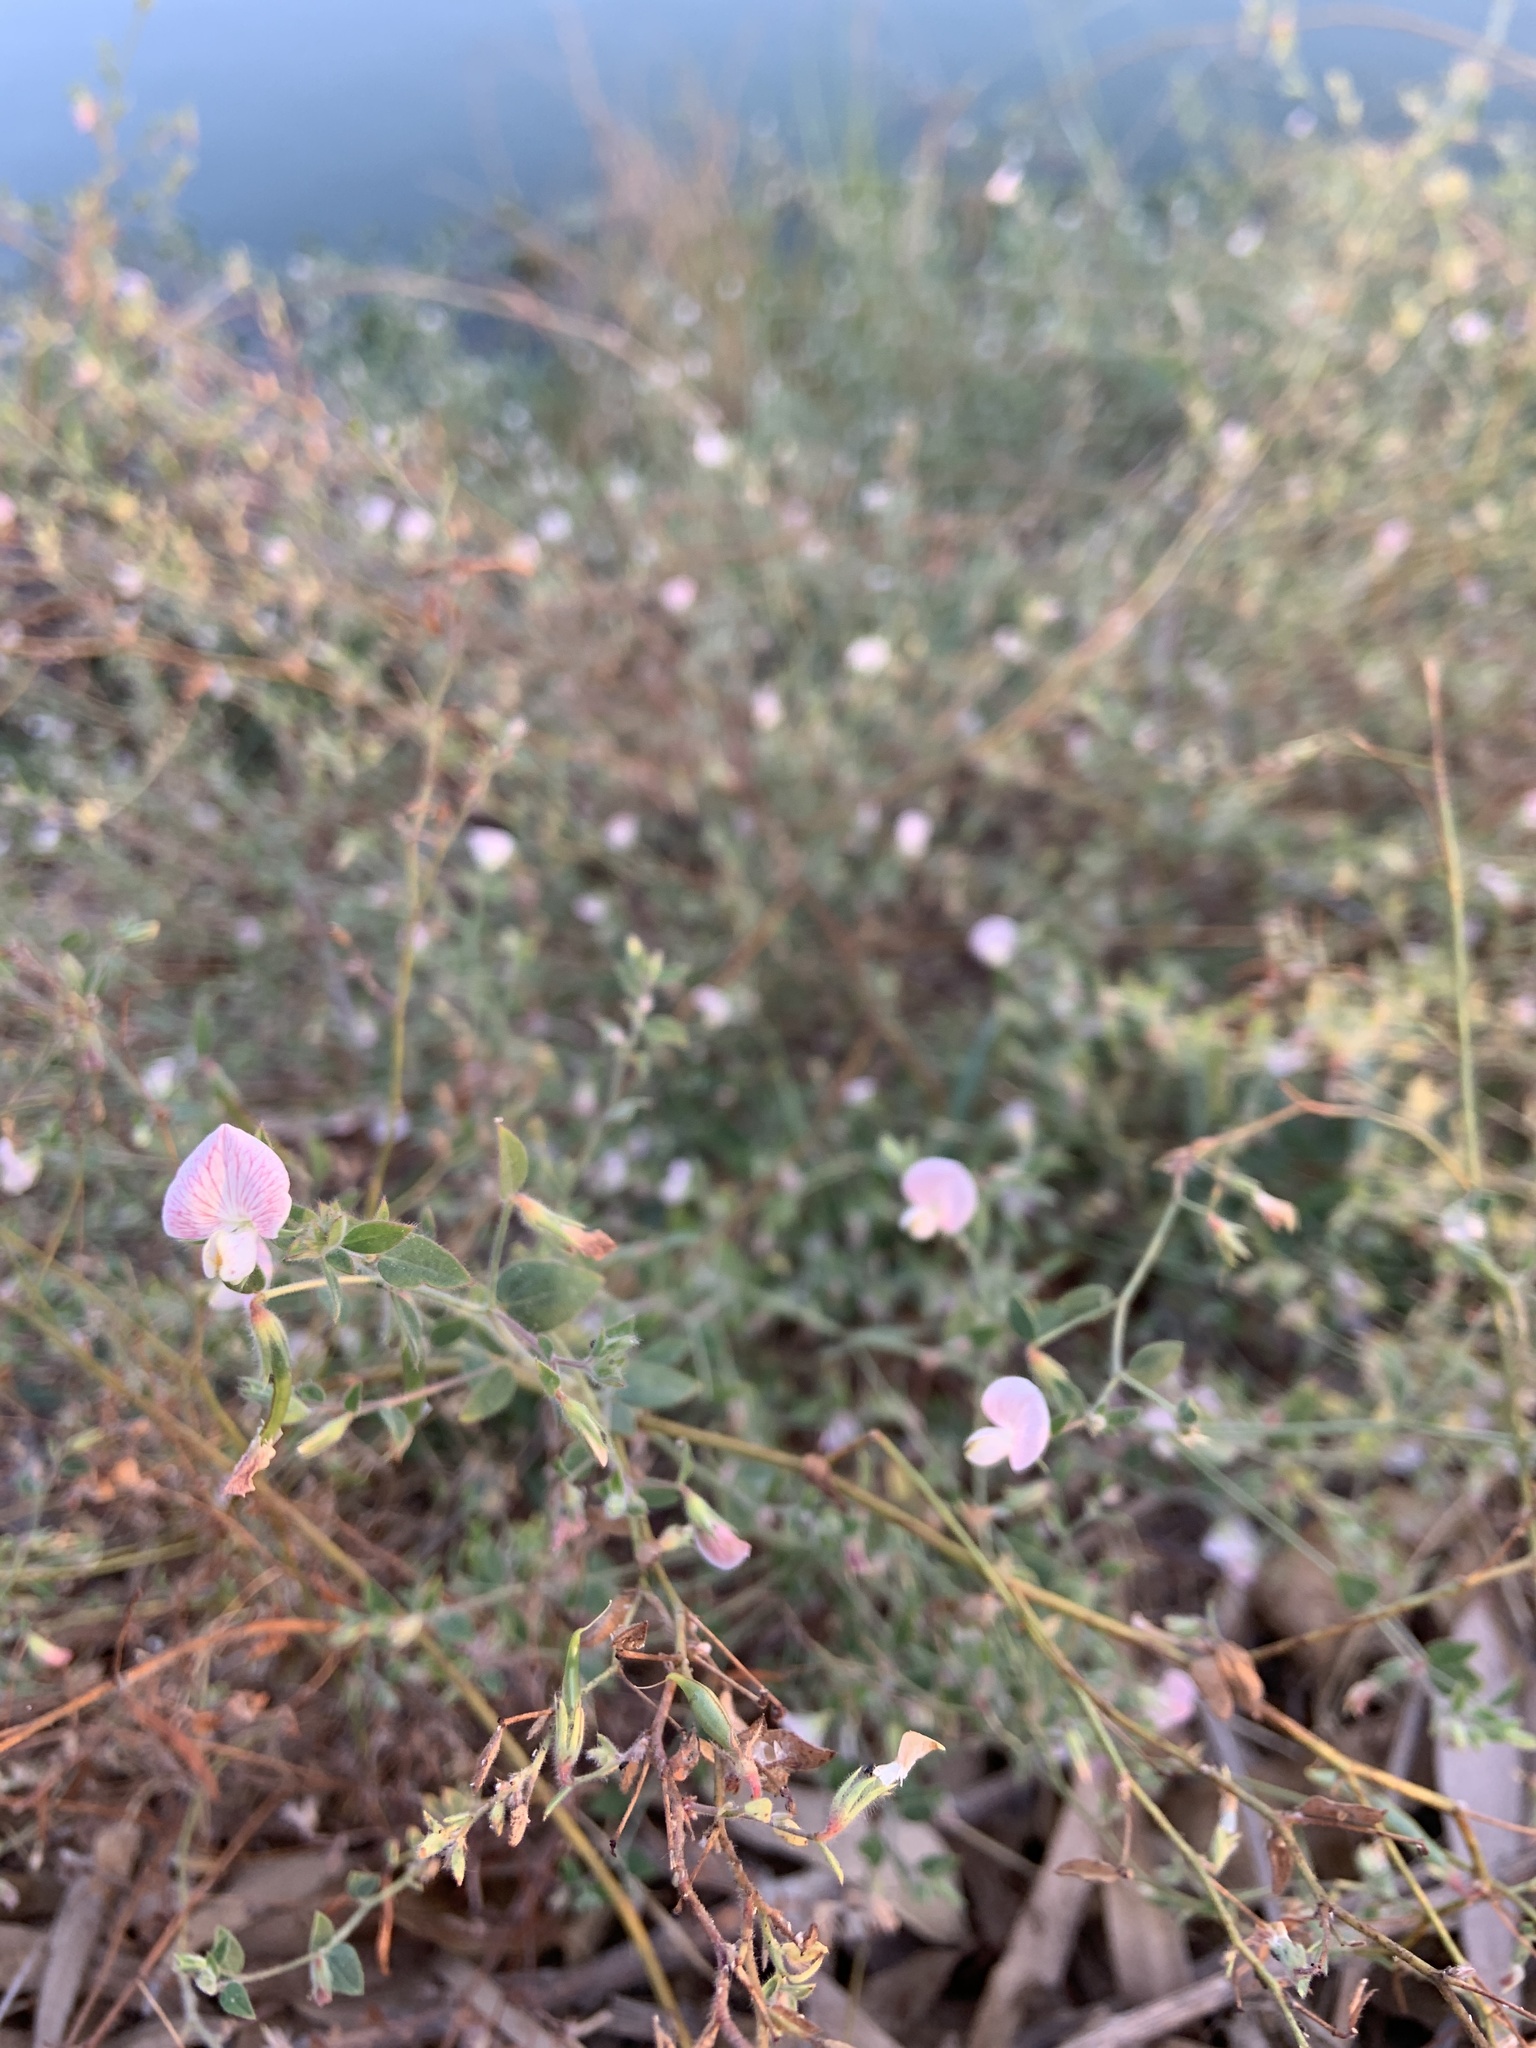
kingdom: Plantae
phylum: Tracheophyta
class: Magnoliopsida
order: Fabales
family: Fabaceae
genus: Acmispon
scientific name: Acmispon americanus
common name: American bird's-foot trefoil
